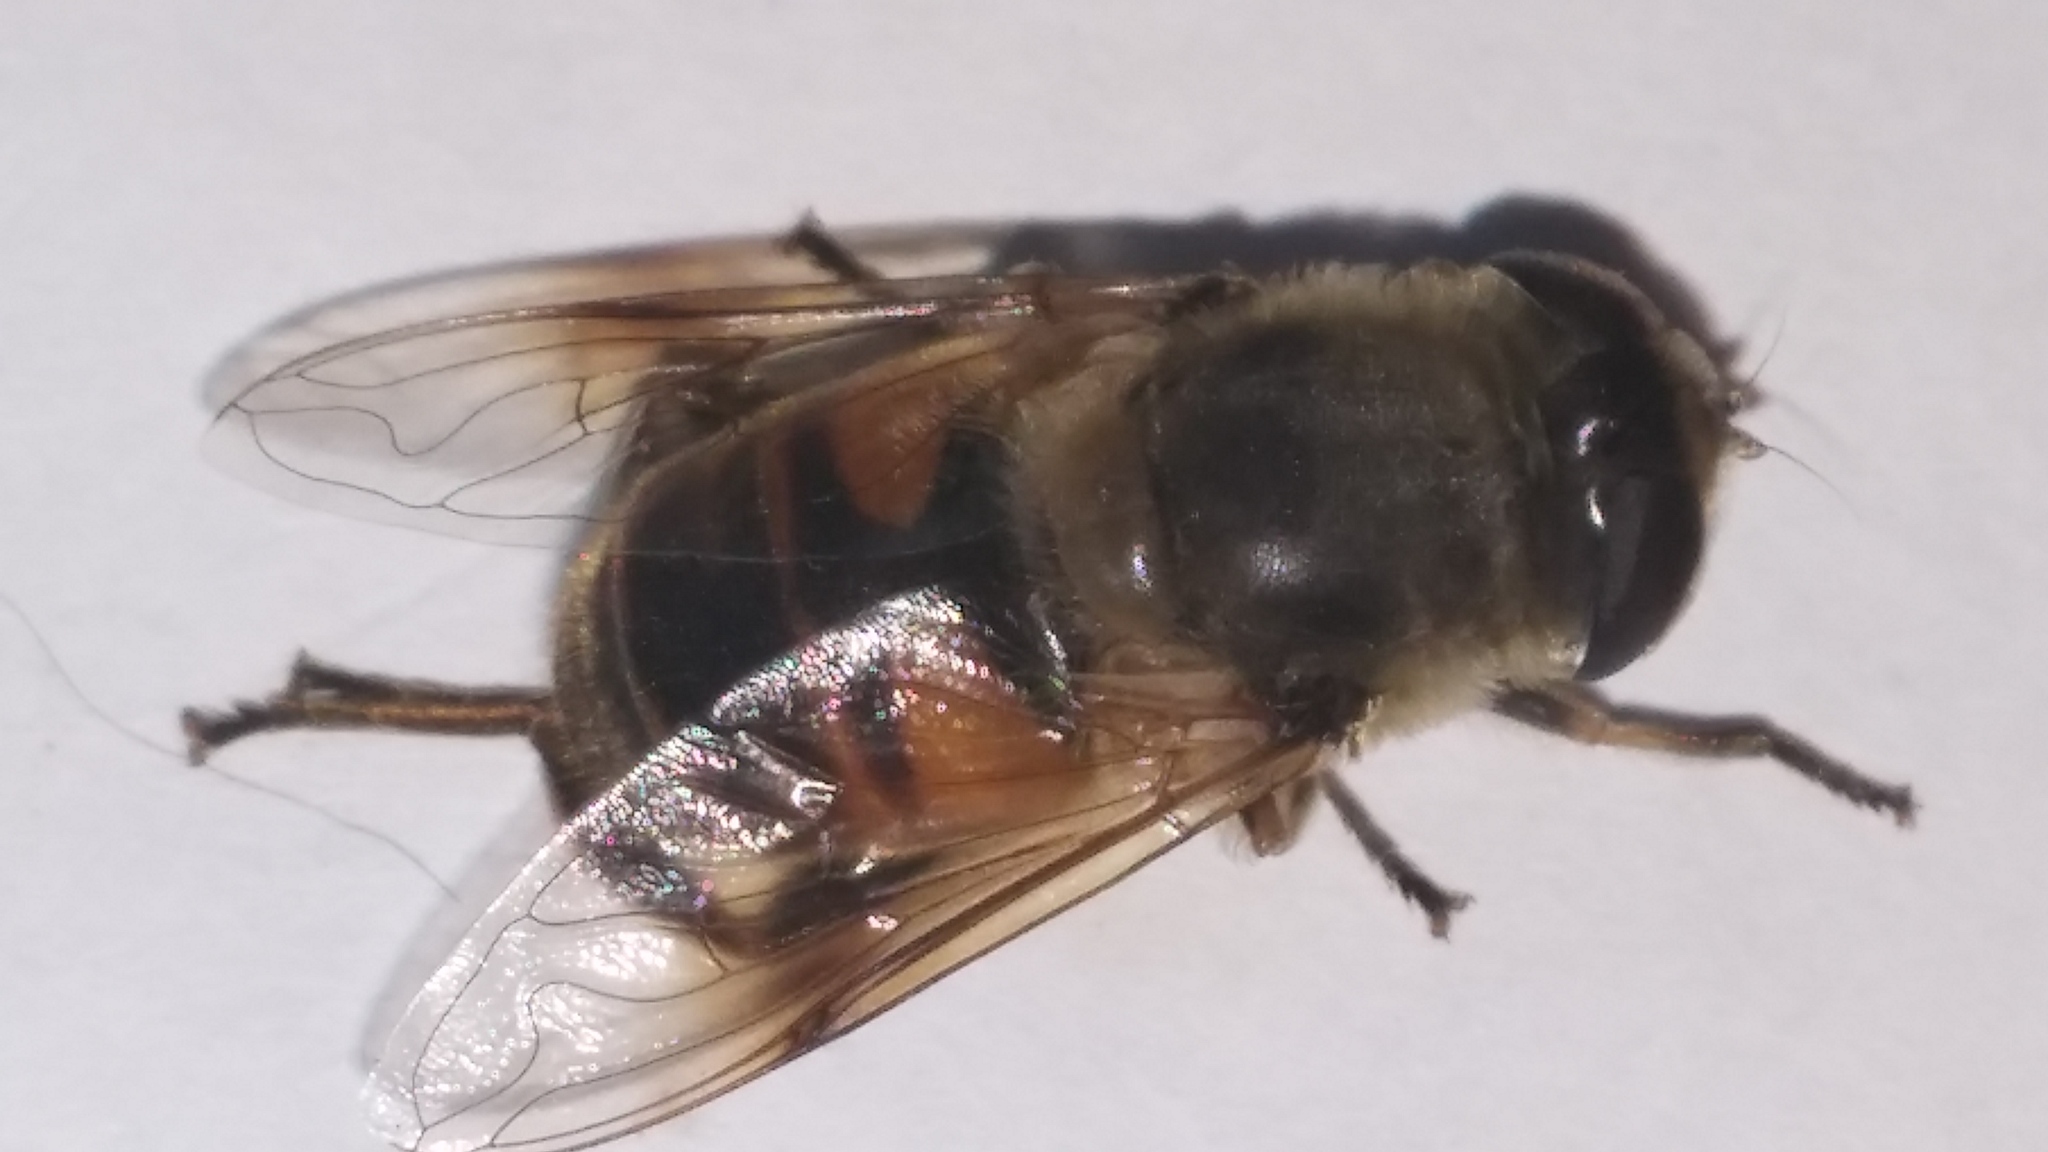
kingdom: Animalia
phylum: Arthropoda
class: Insecta
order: Diptera
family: Syrphidae
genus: Eristalis
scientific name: Eristalis tenax
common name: Drone fly
